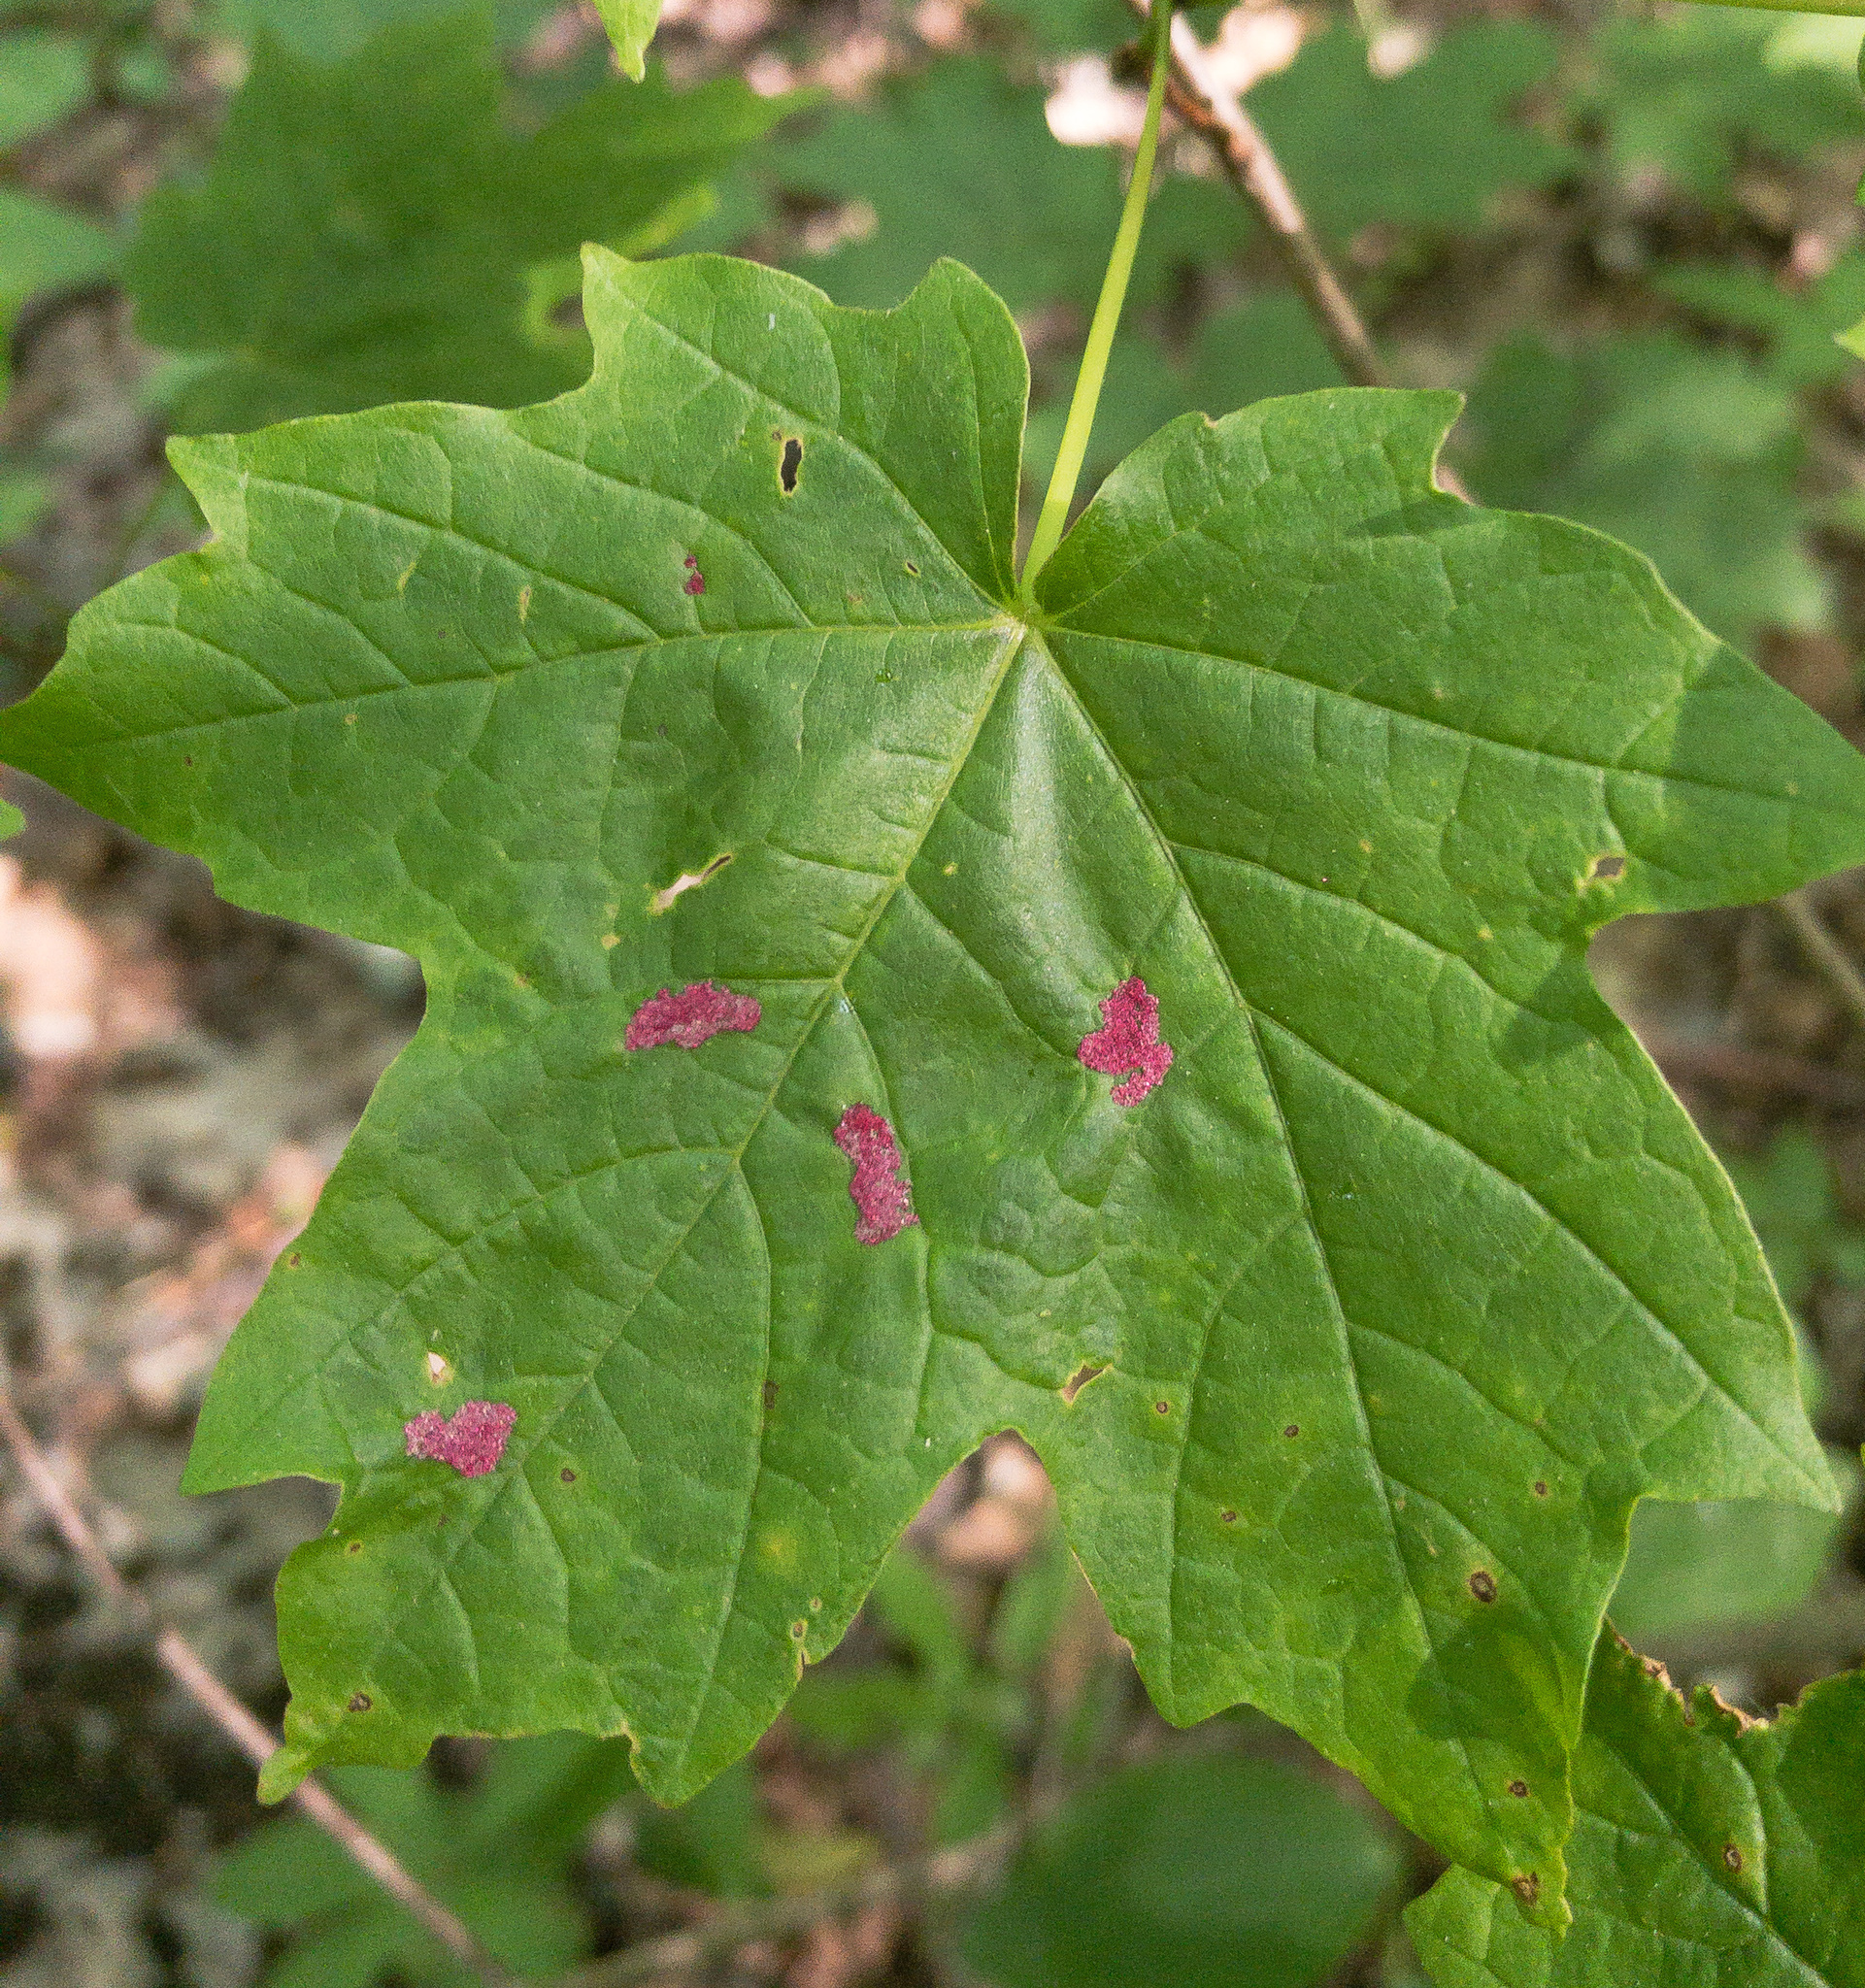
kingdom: Animalia
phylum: Arthropoda
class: Arachnida
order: Trombidiformes
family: Eriophyidae
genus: Aceria
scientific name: Aceria
